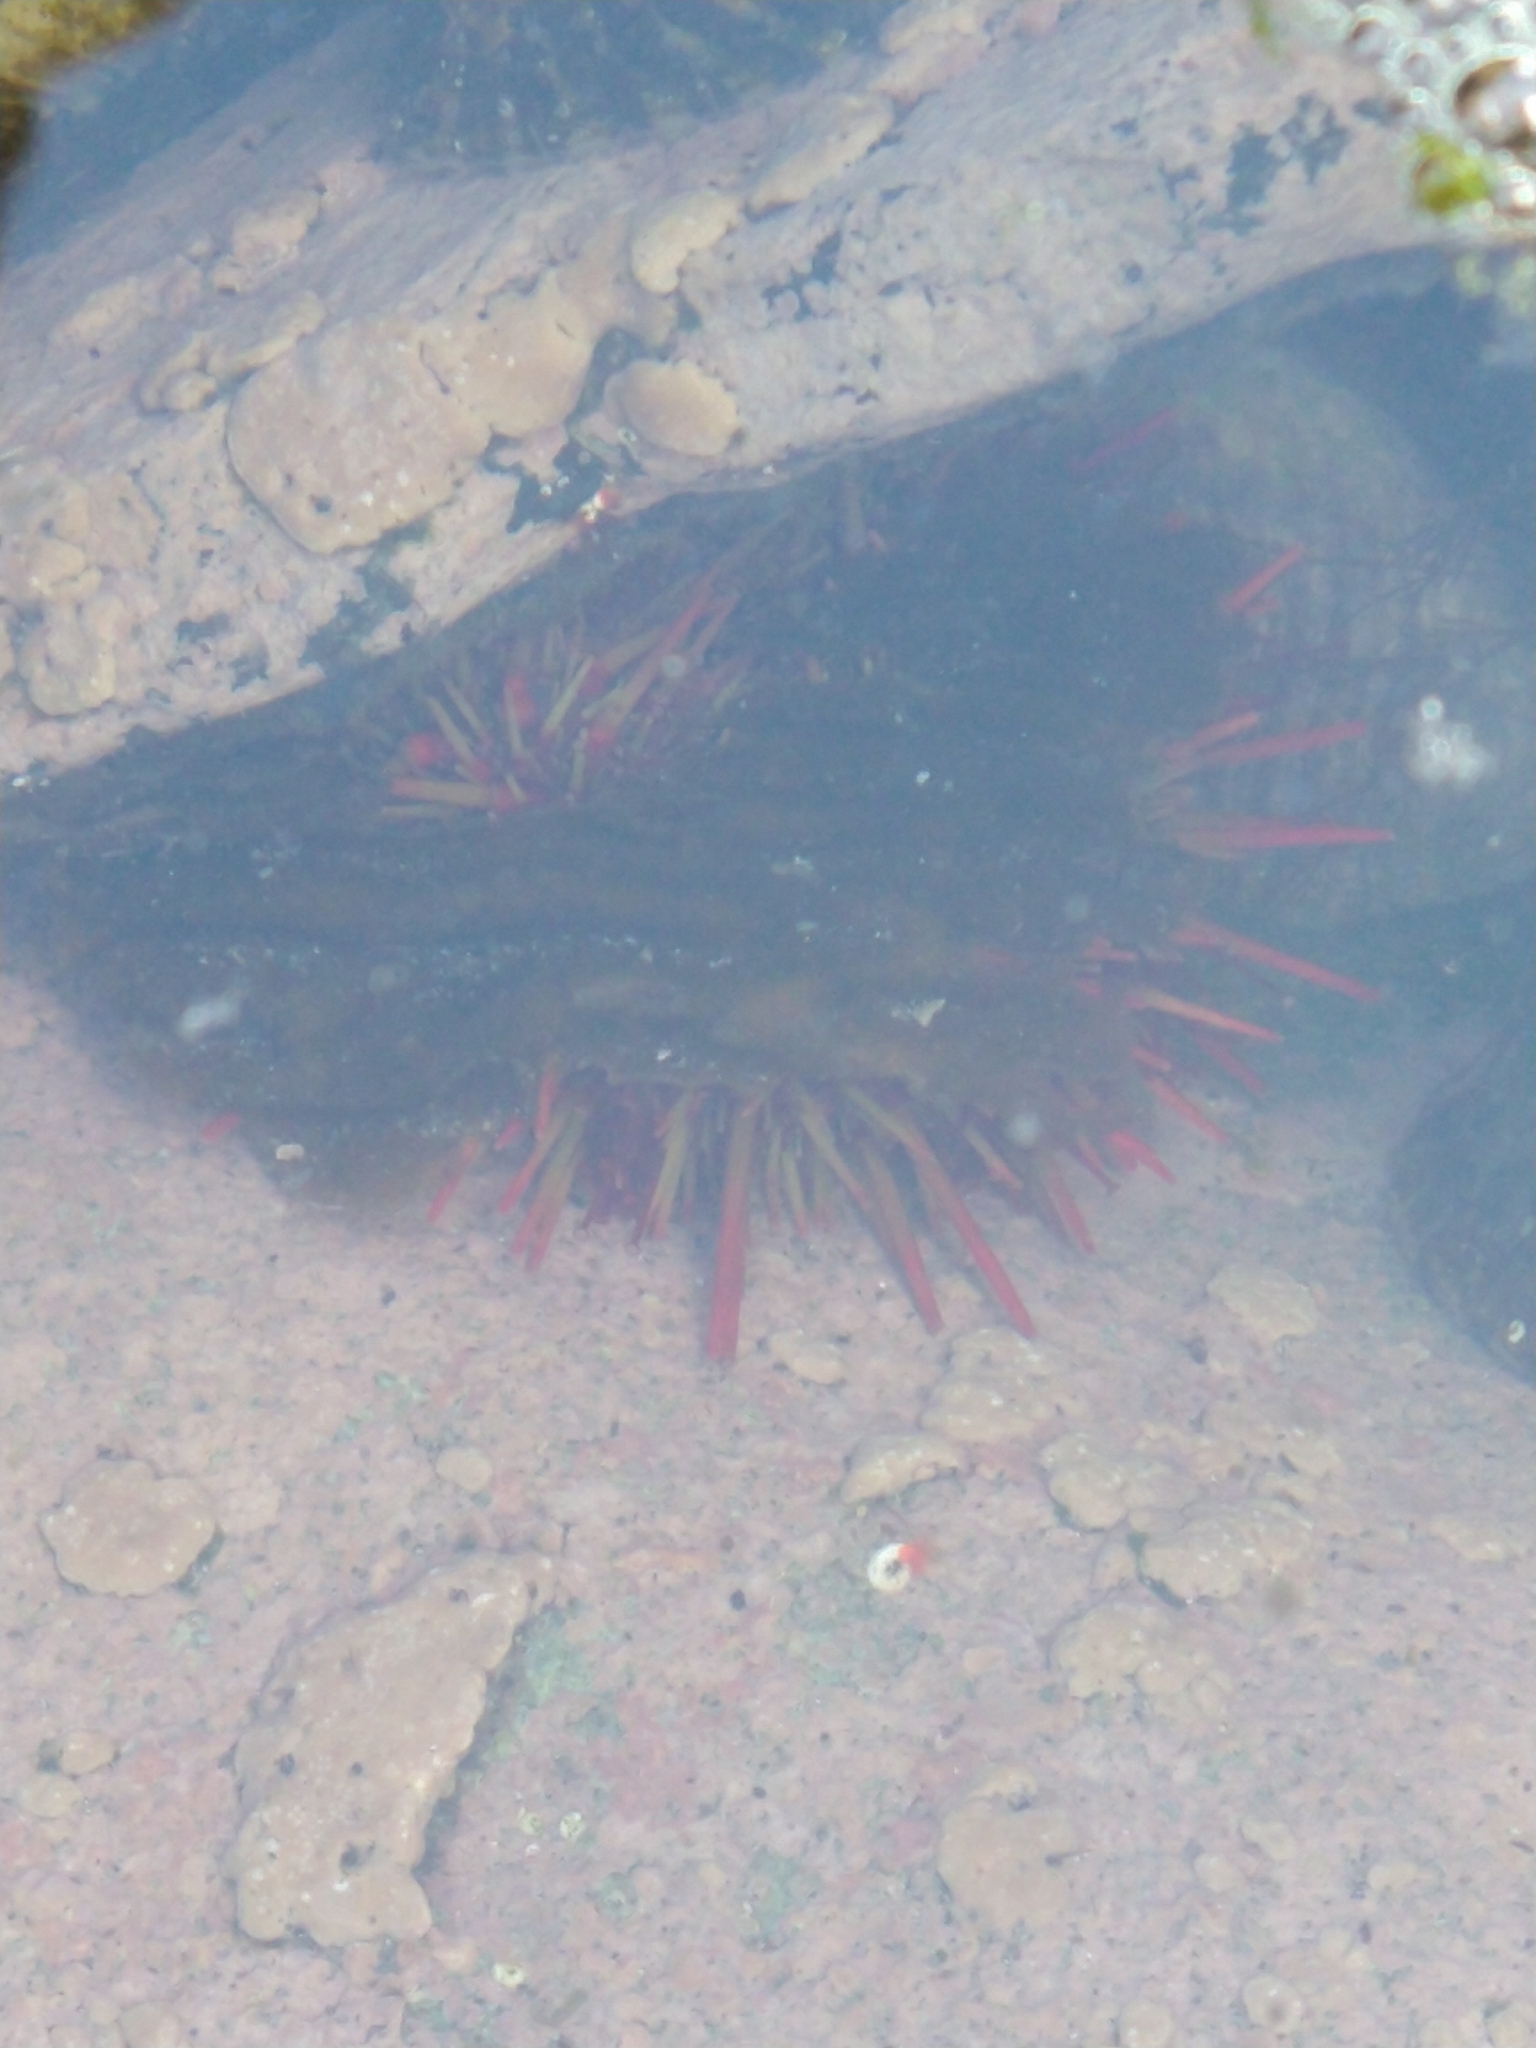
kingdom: Animalia
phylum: Echinodermata
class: Echinoidea
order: Camarodonta
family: Parechinidae
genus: Loxechinus
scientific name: Loxechinus albus
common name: Chilean sea urchin
